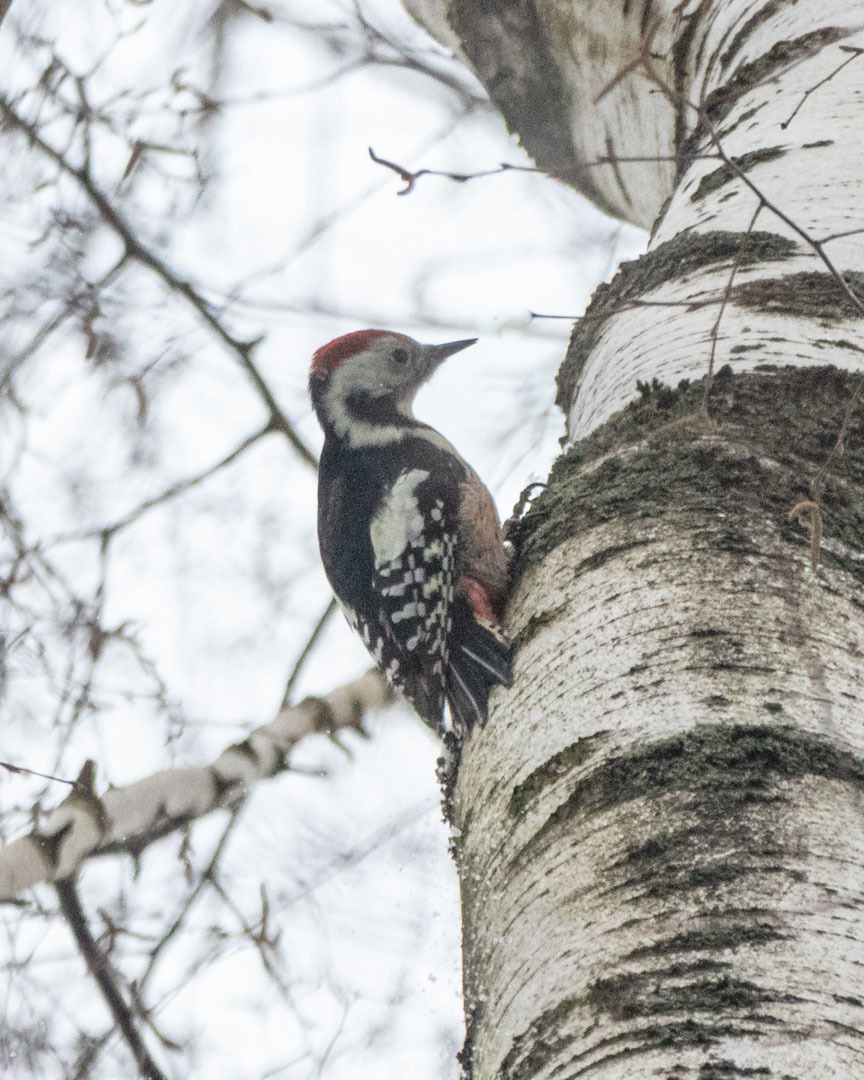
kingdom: Animalia
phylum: Chordata
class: Aves
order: Piciformes
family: Picidae
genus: Dendrocoptes
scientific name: Dendrocoptes medius
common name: Middle spotted woodpecker
